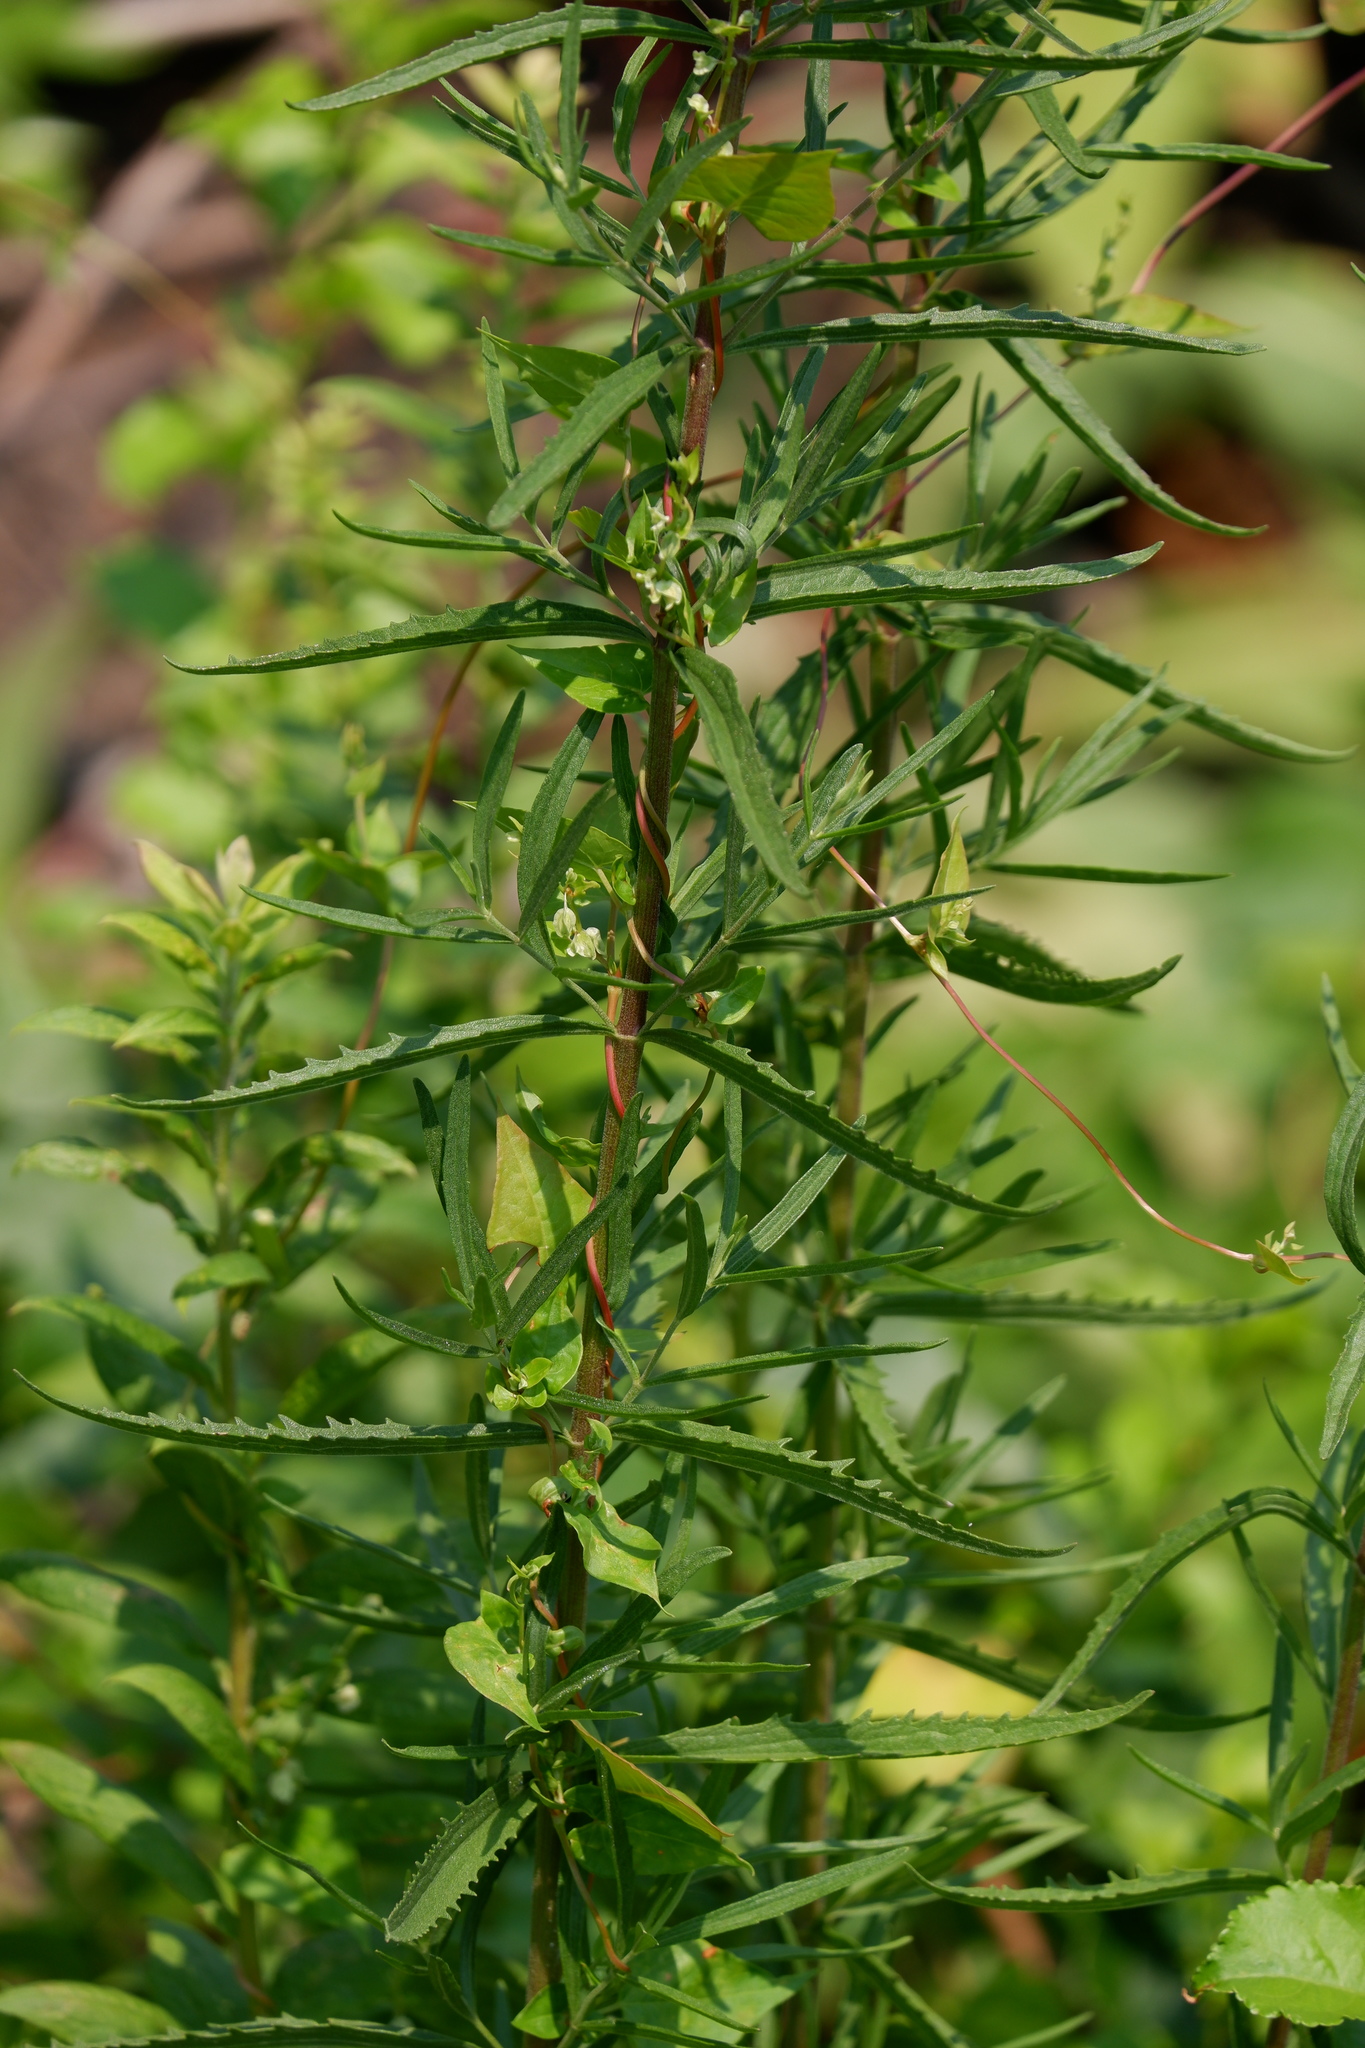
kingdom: Plantae
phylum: Tracheophyta
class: Magnoliopsida
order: Asterales
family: Asteraceae
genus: Eupatorium
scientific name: Eupatorium torreyanum
